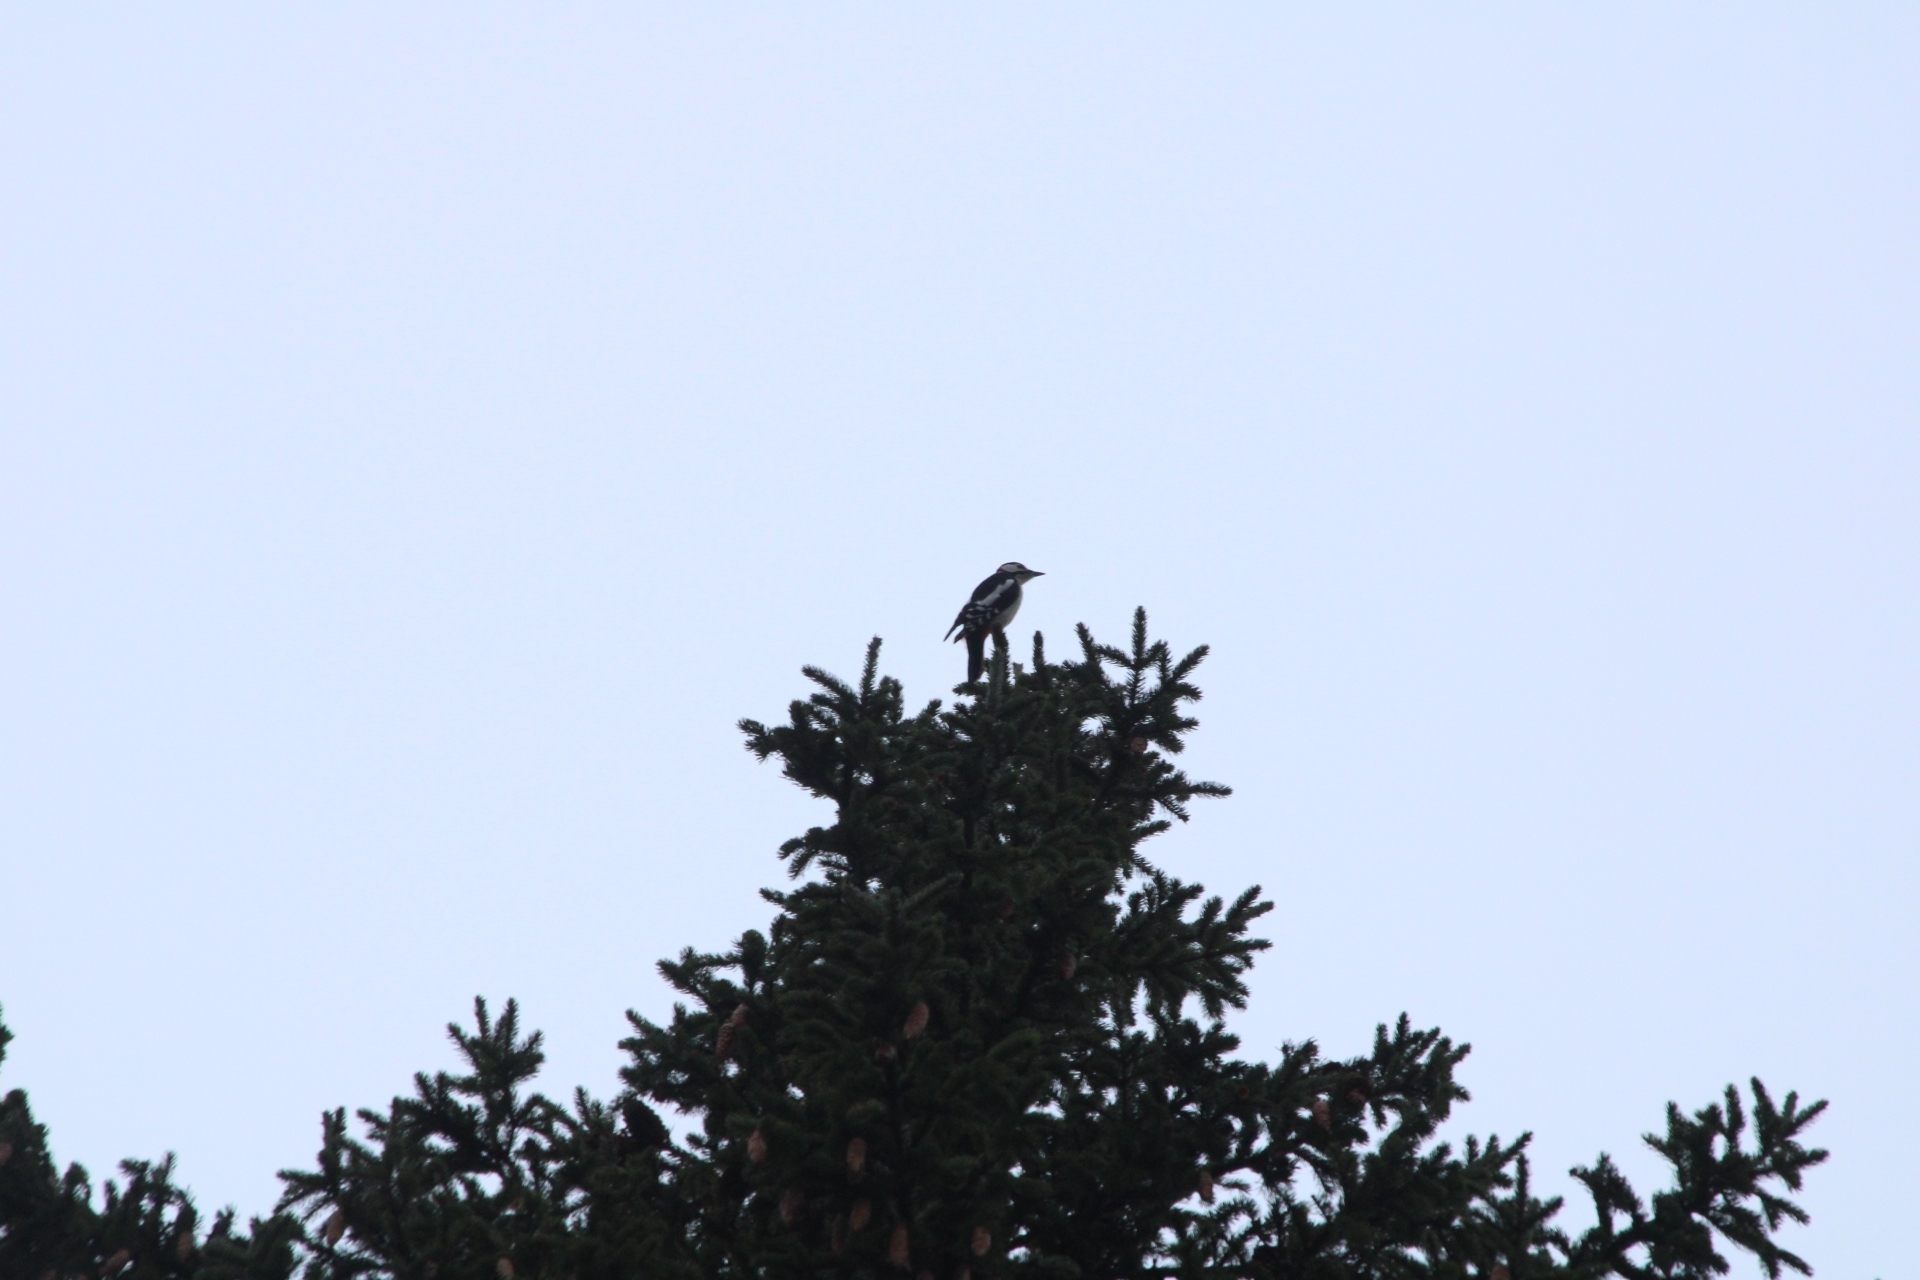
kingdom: Animalia
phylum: Chordata
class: Aves
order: Piciformes
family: Picidae
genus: Dendrocopos
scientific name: Dendrocopos major
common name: Great spotted woodpecker
